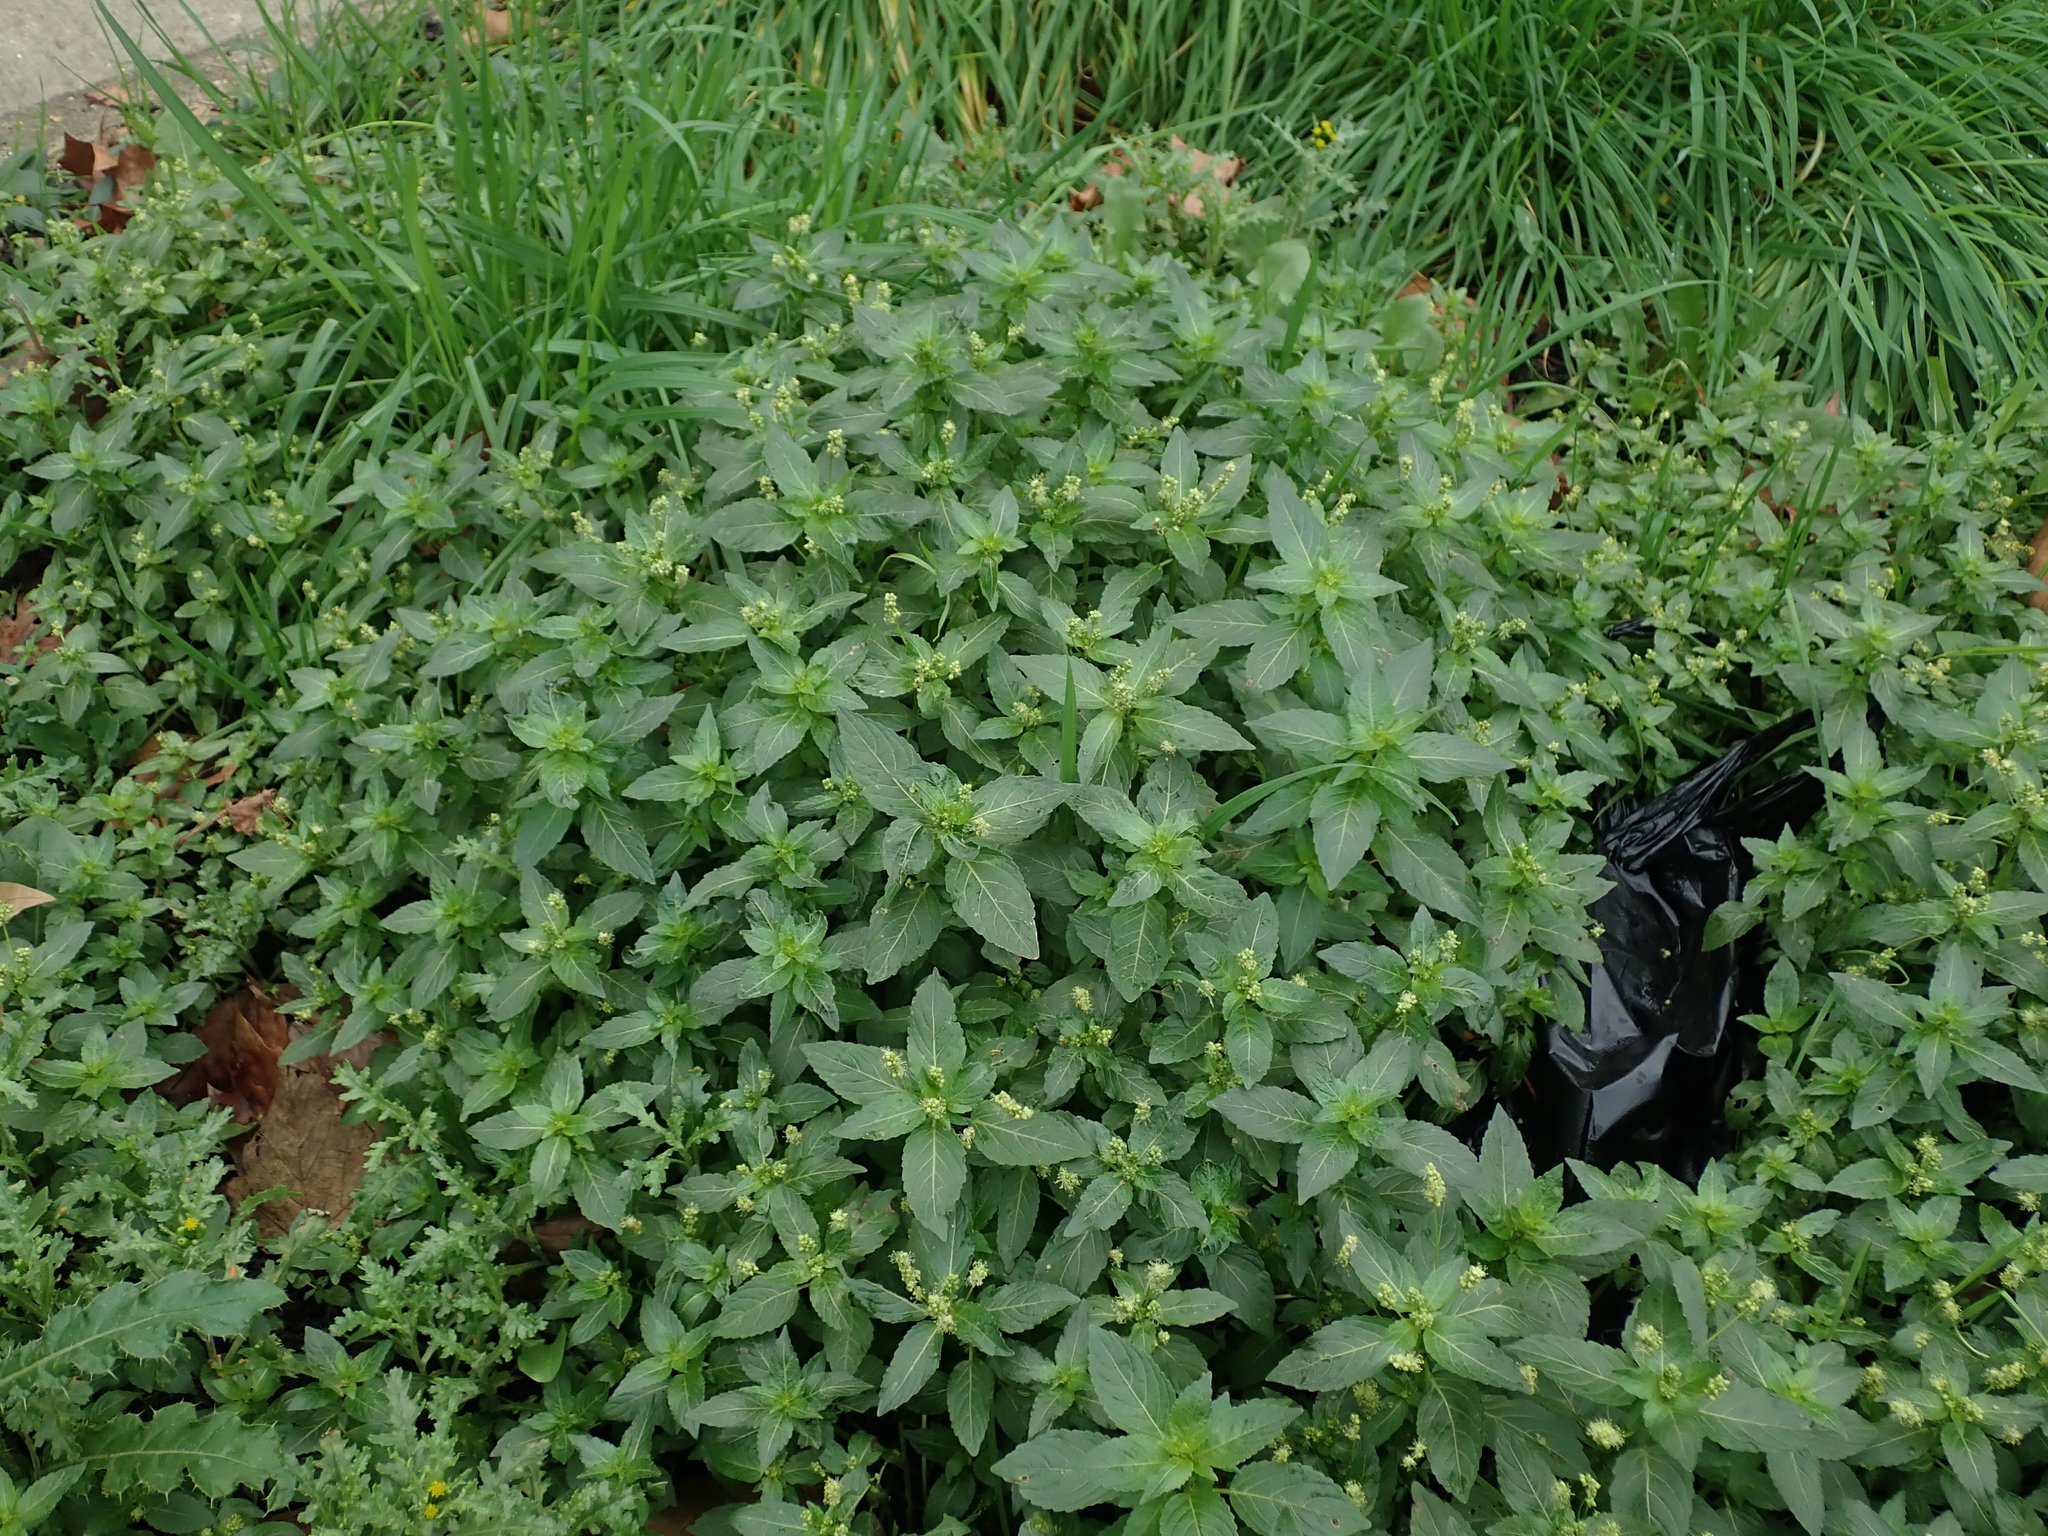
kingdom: Plantae
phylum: Tracheophyta
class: Magnoliopsida
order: Malpighiales
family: Euphorbiaceae
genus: Mercurialis
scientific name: Mercurialis annua
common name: Annual mercury
